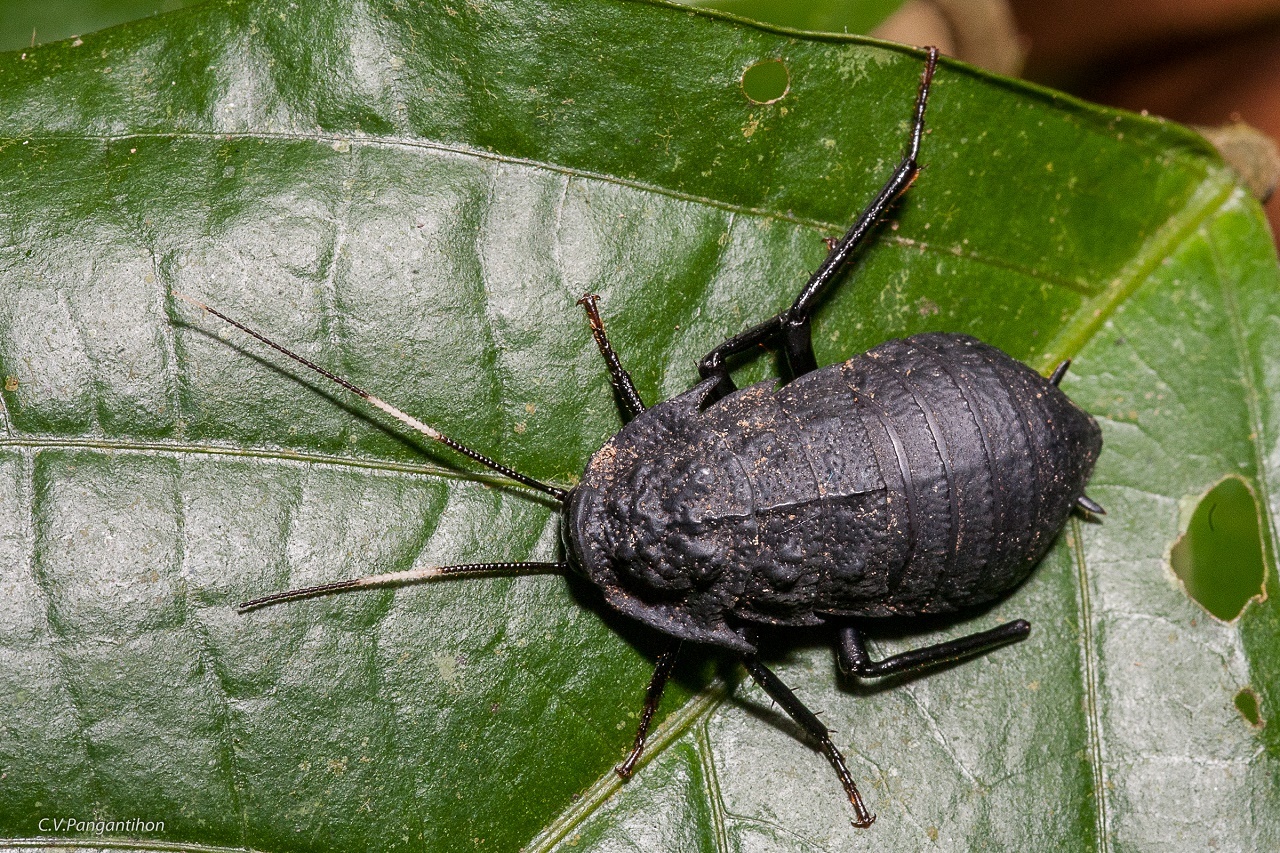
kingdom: Animalia
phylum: Arthropoda
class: Insecta
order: Blattodea
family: Blattidae
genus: Catara
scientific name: Catara rugosicollis
